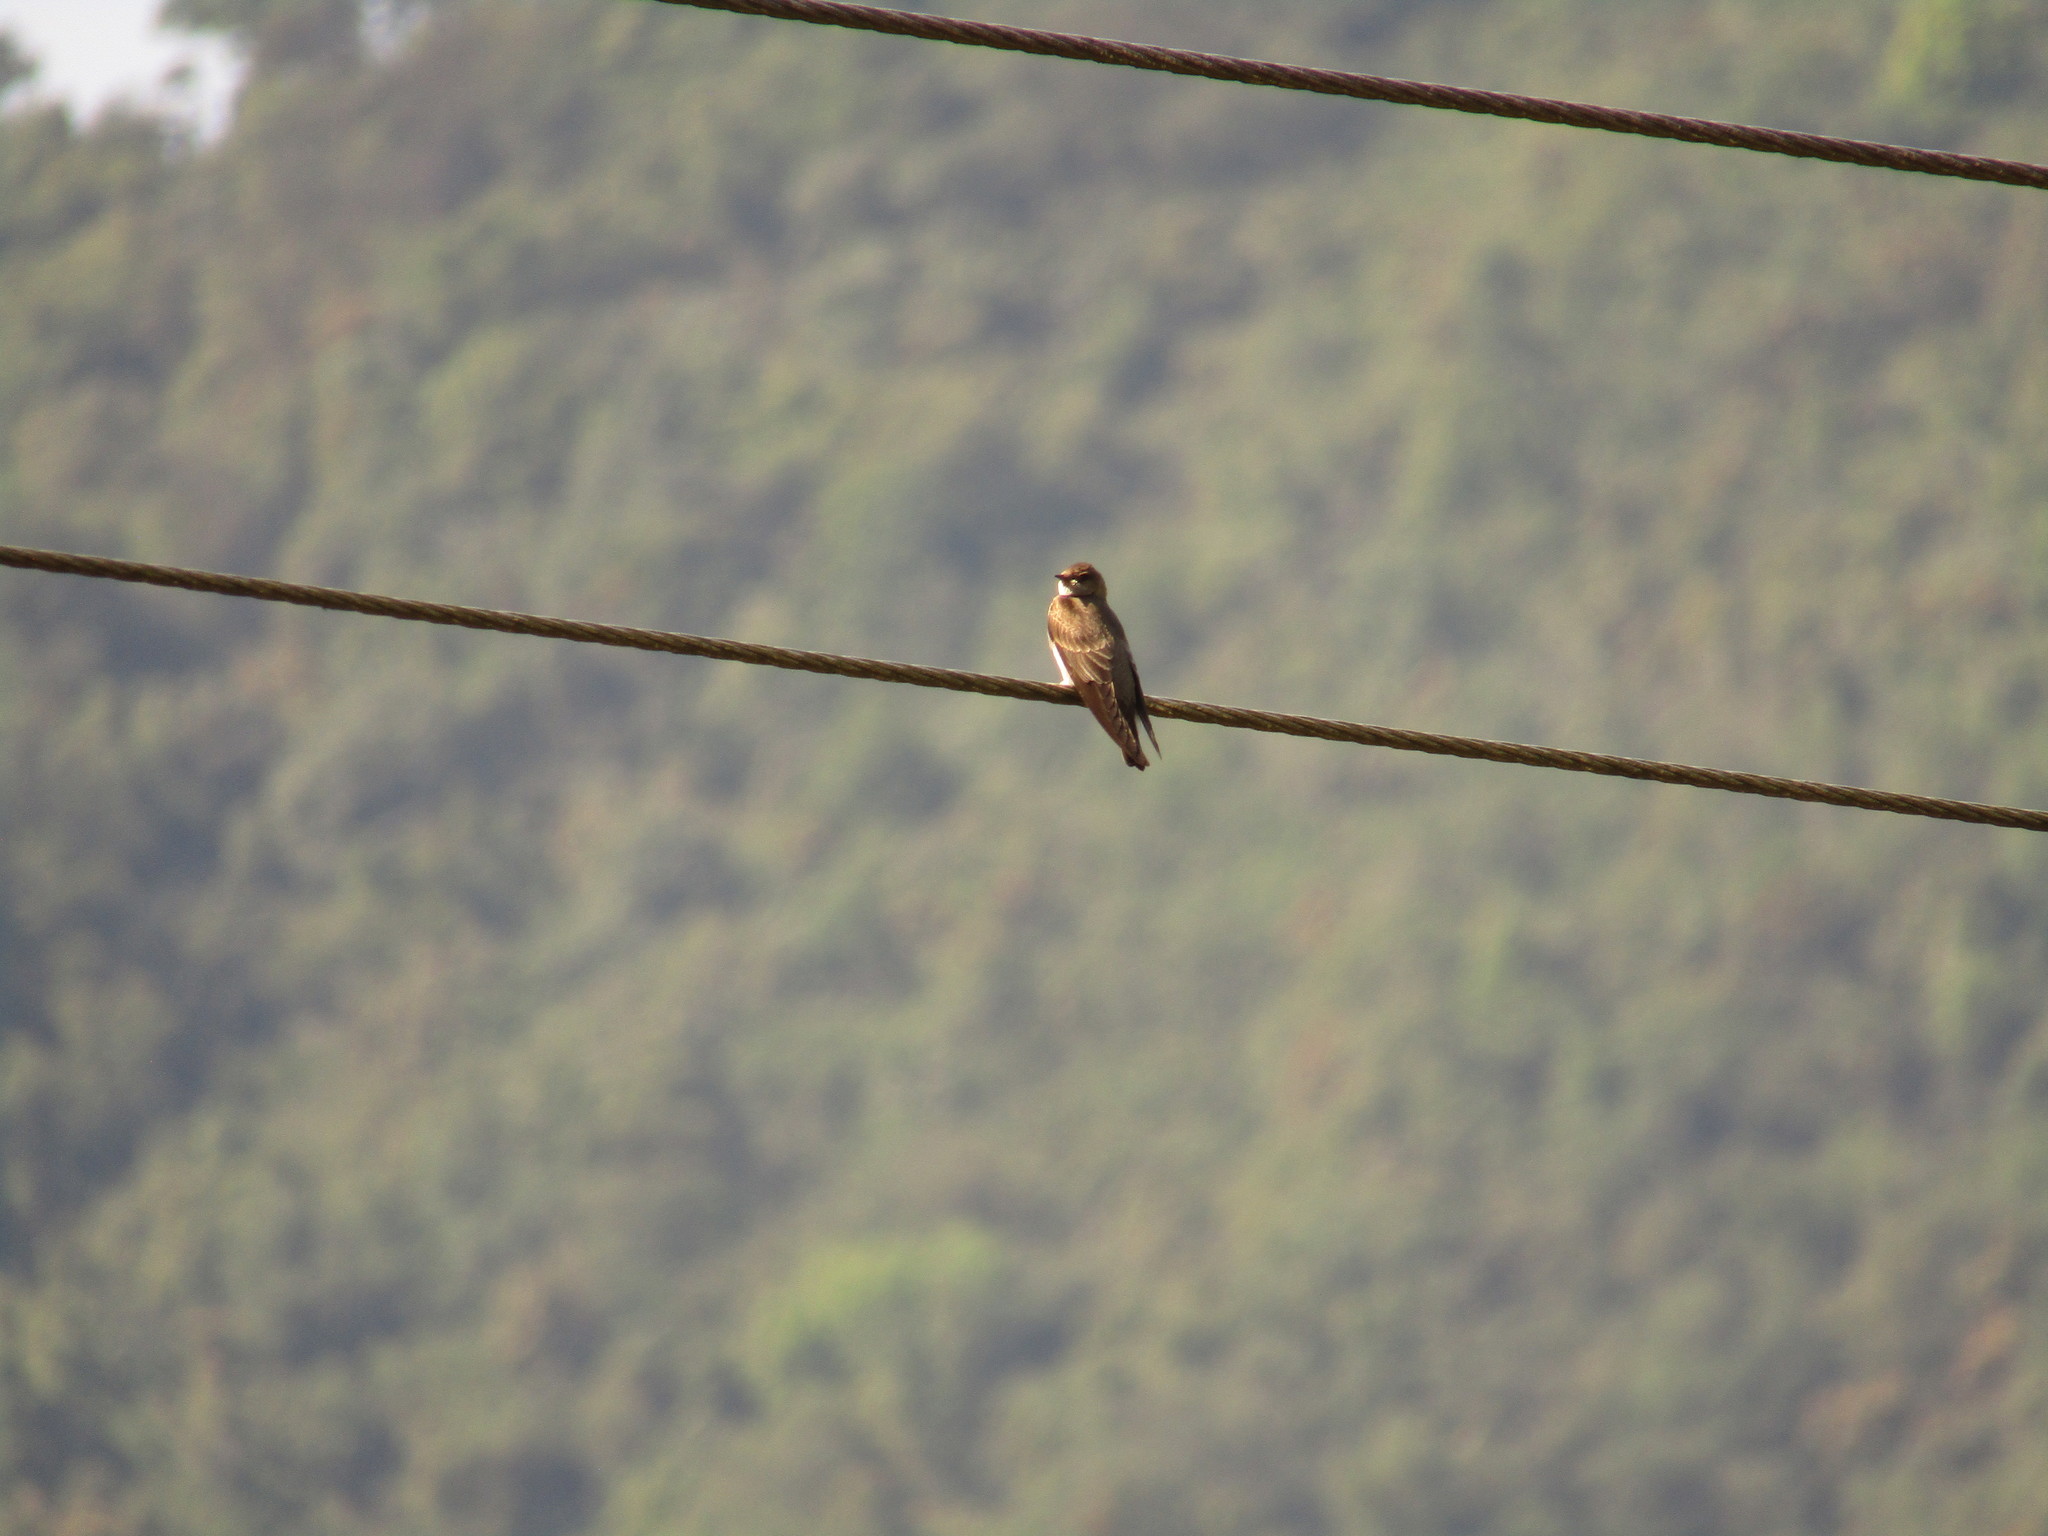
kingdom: Animalia
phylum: Chordata
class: Aves
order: Passeriformes
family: Hirundinidae
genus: Stelgidopteryx
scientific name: Stelgidopteryx serripennis
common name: Northern rough-winged swallow
